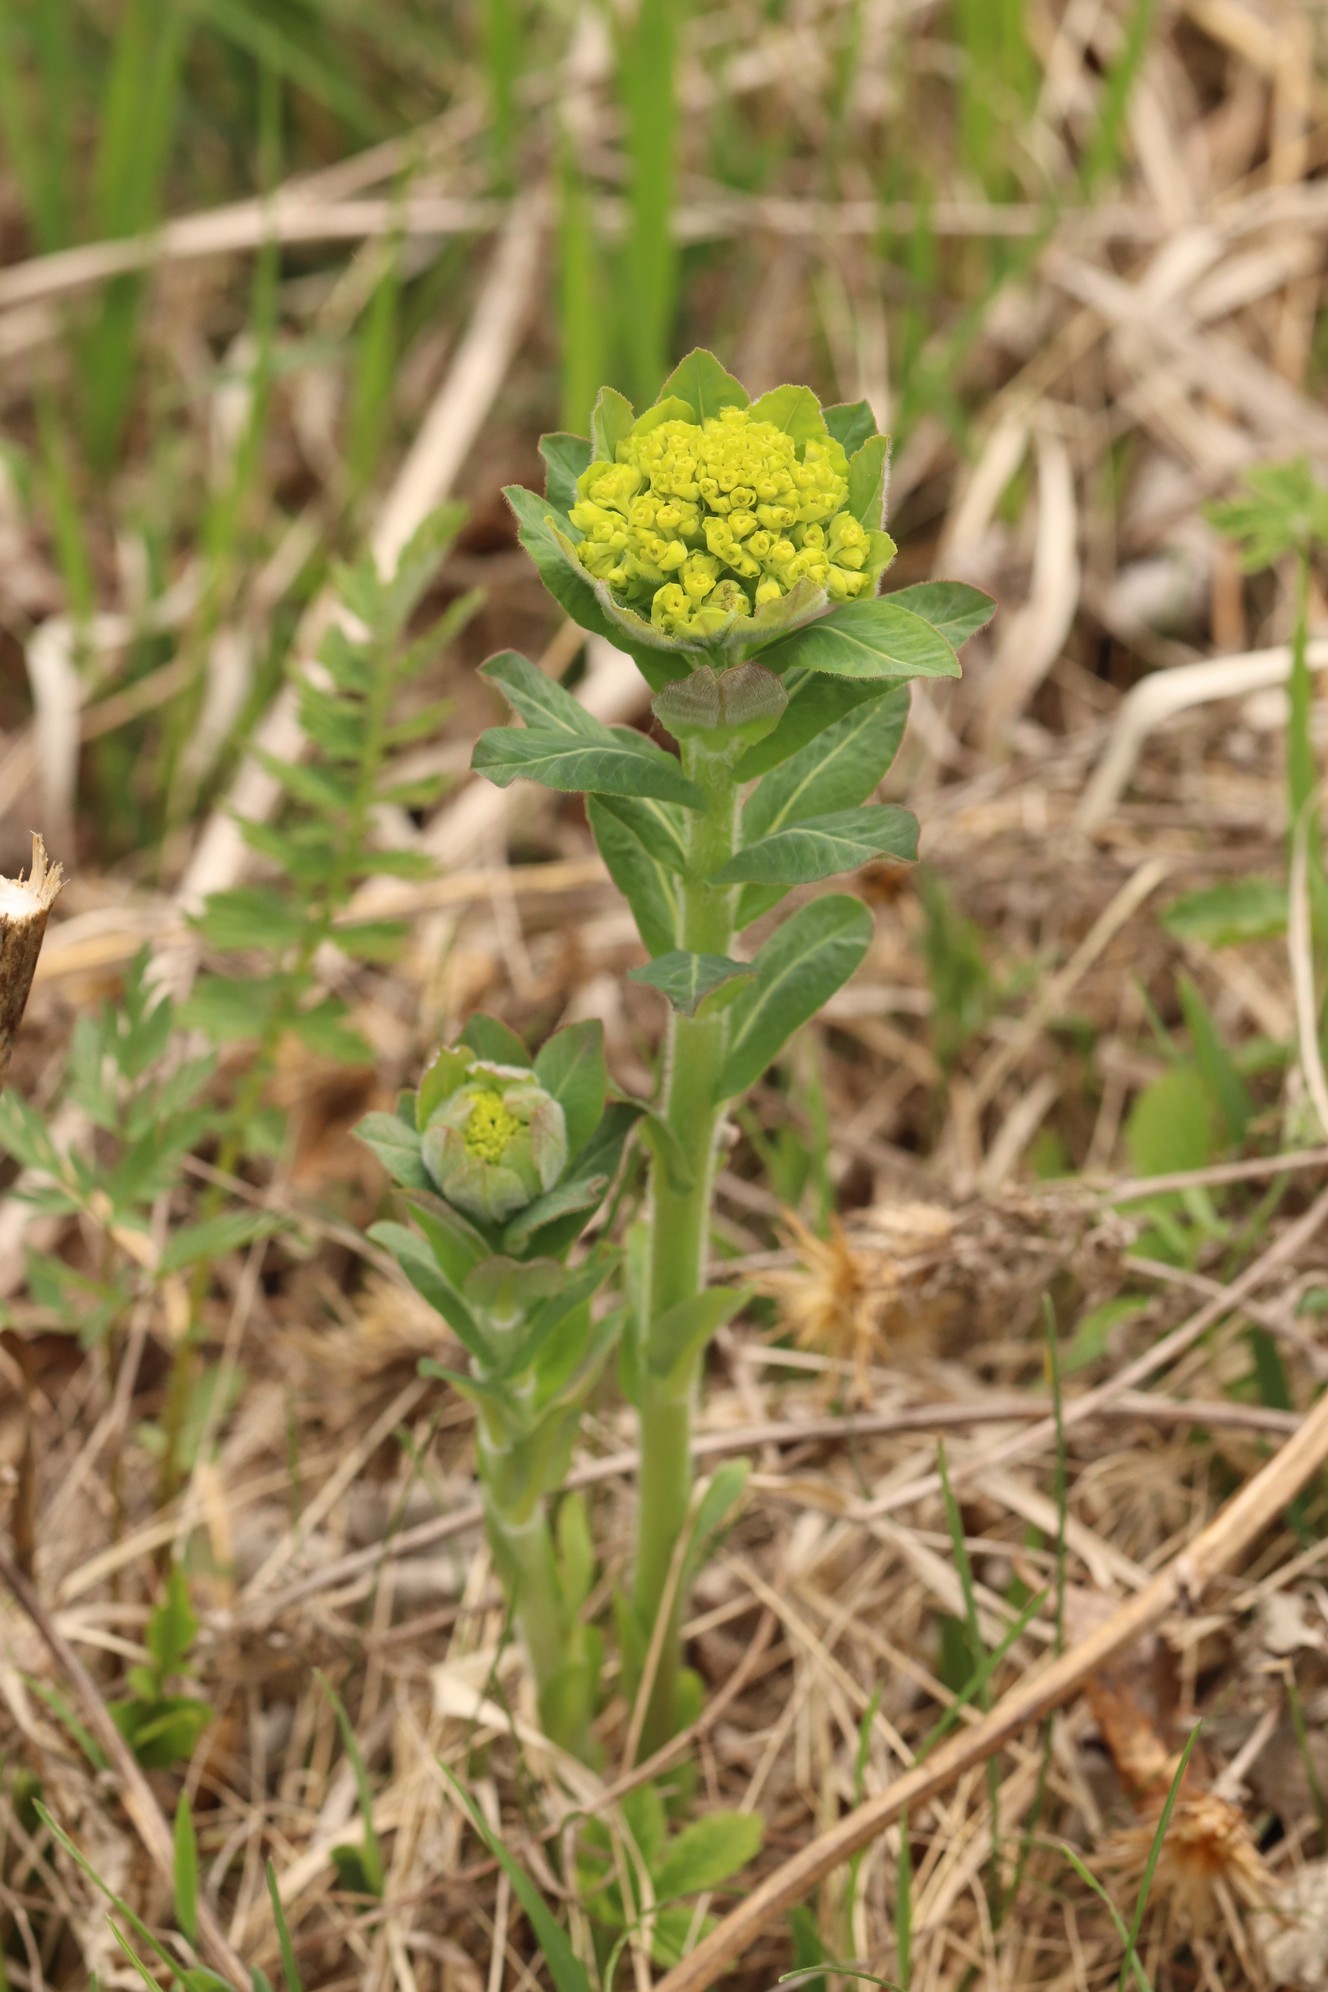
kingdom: Plantae
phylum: Tracheophyta
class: Magnoliopsida
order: Malpighiales
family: Euphorbiaceae
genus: Euphorbia
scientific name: Euphorbia pilosa
